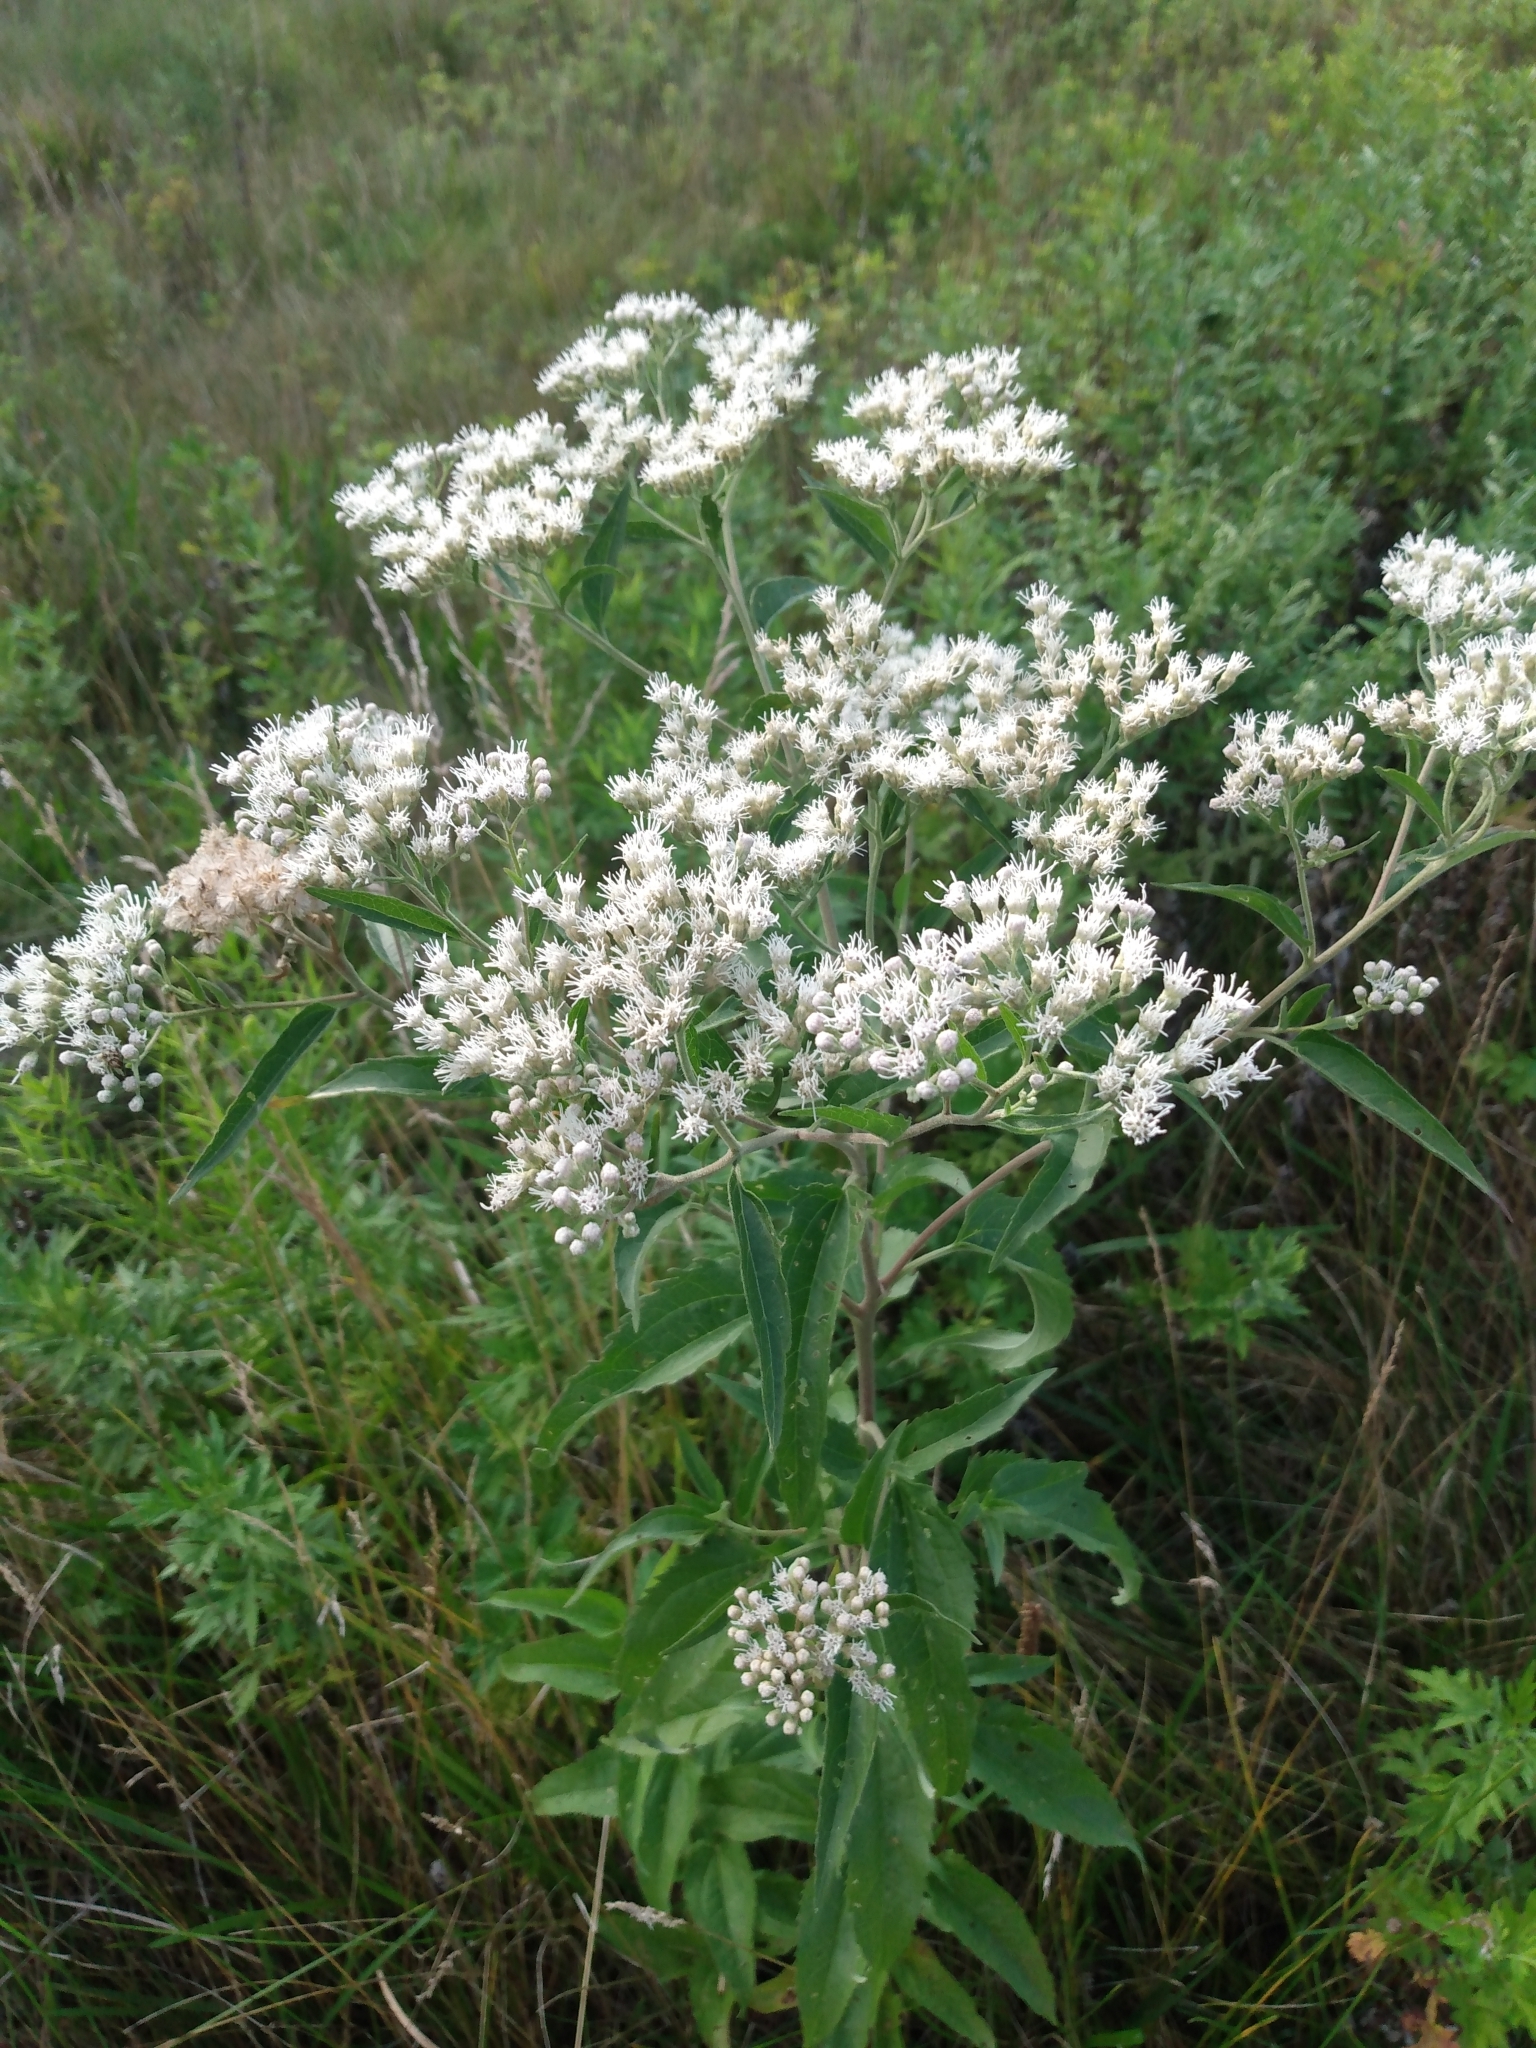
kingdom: Plantae
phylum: Tracheophyta
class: Magnoliopsida
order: Asterales
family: Asteraceae
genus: Eupatorium
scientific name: Eupatorium serotinum
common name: Late boneset
